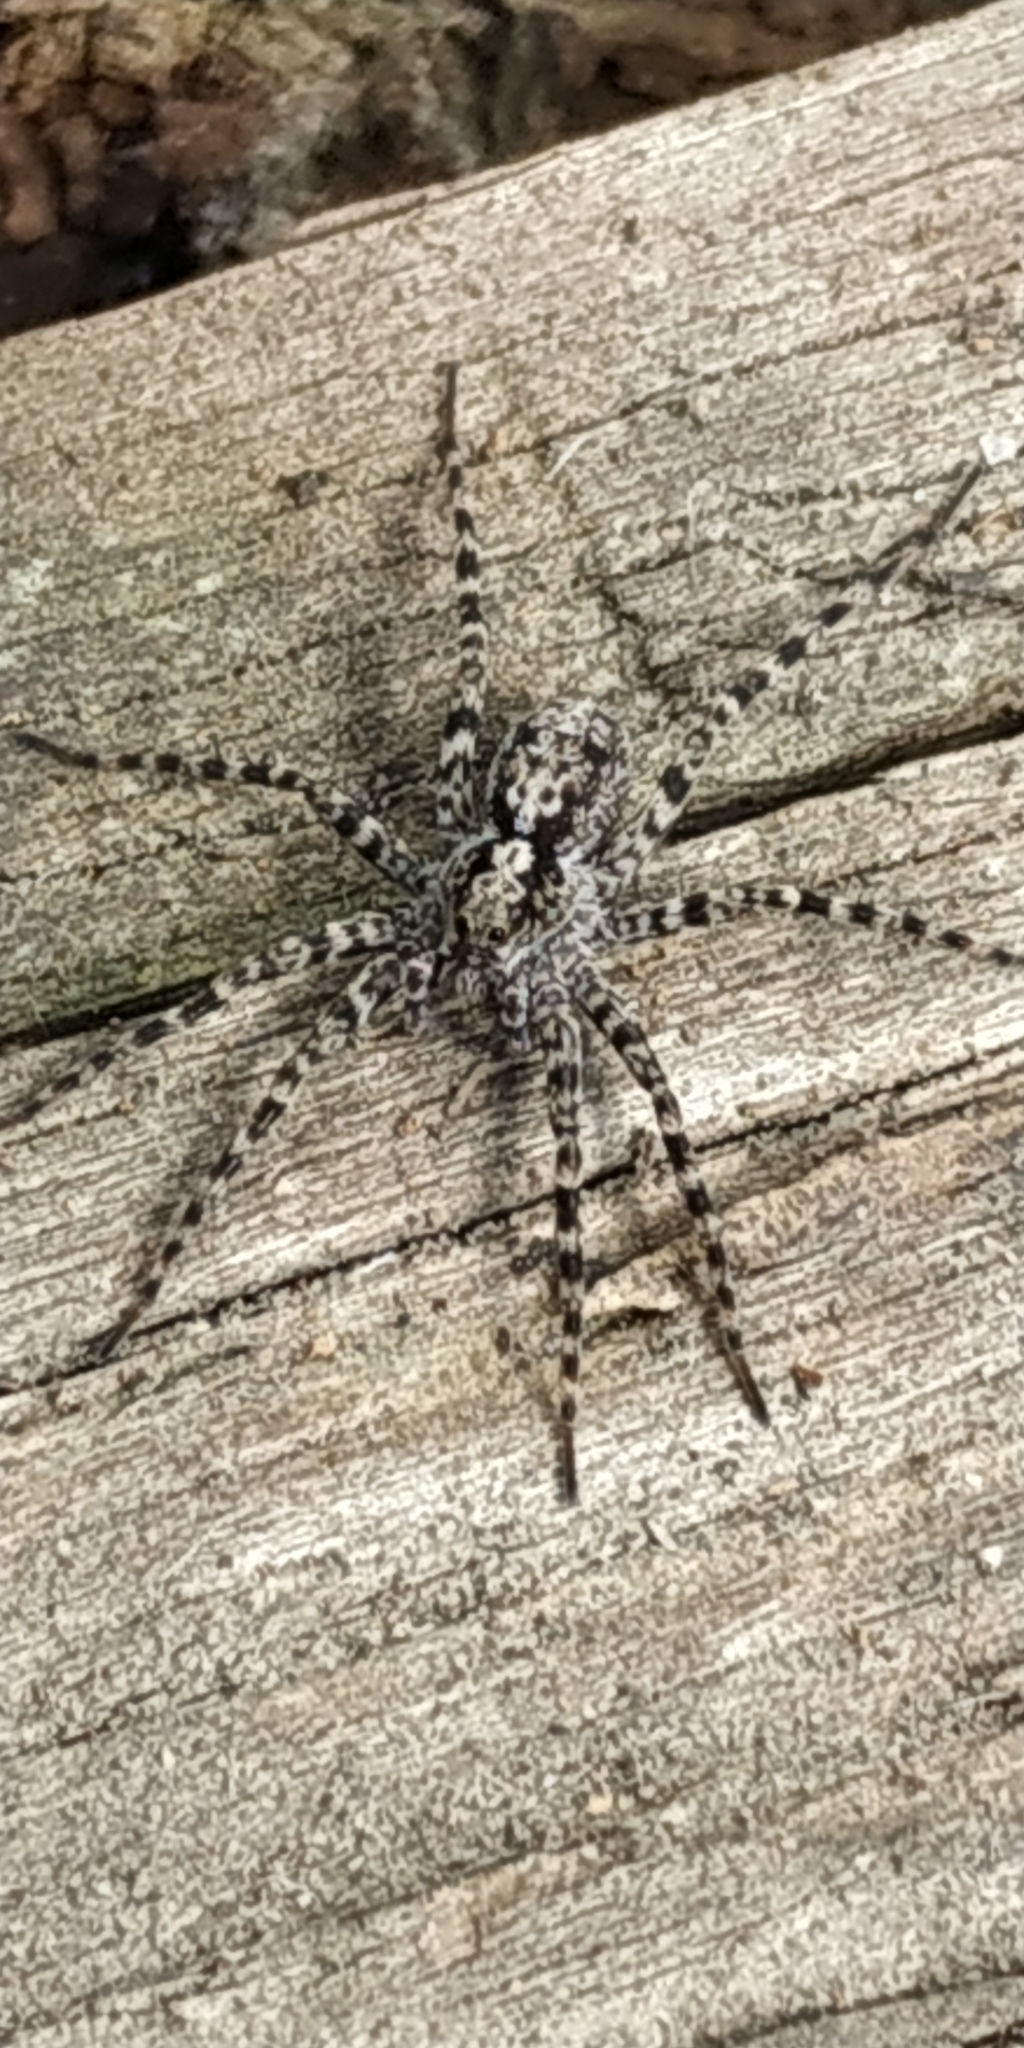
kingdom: Animalia
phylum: Arthropoda
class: Arachnida
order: Araneae
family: Lycosidae
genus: Acantholycosa
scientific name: Acantholycosa lignaria
